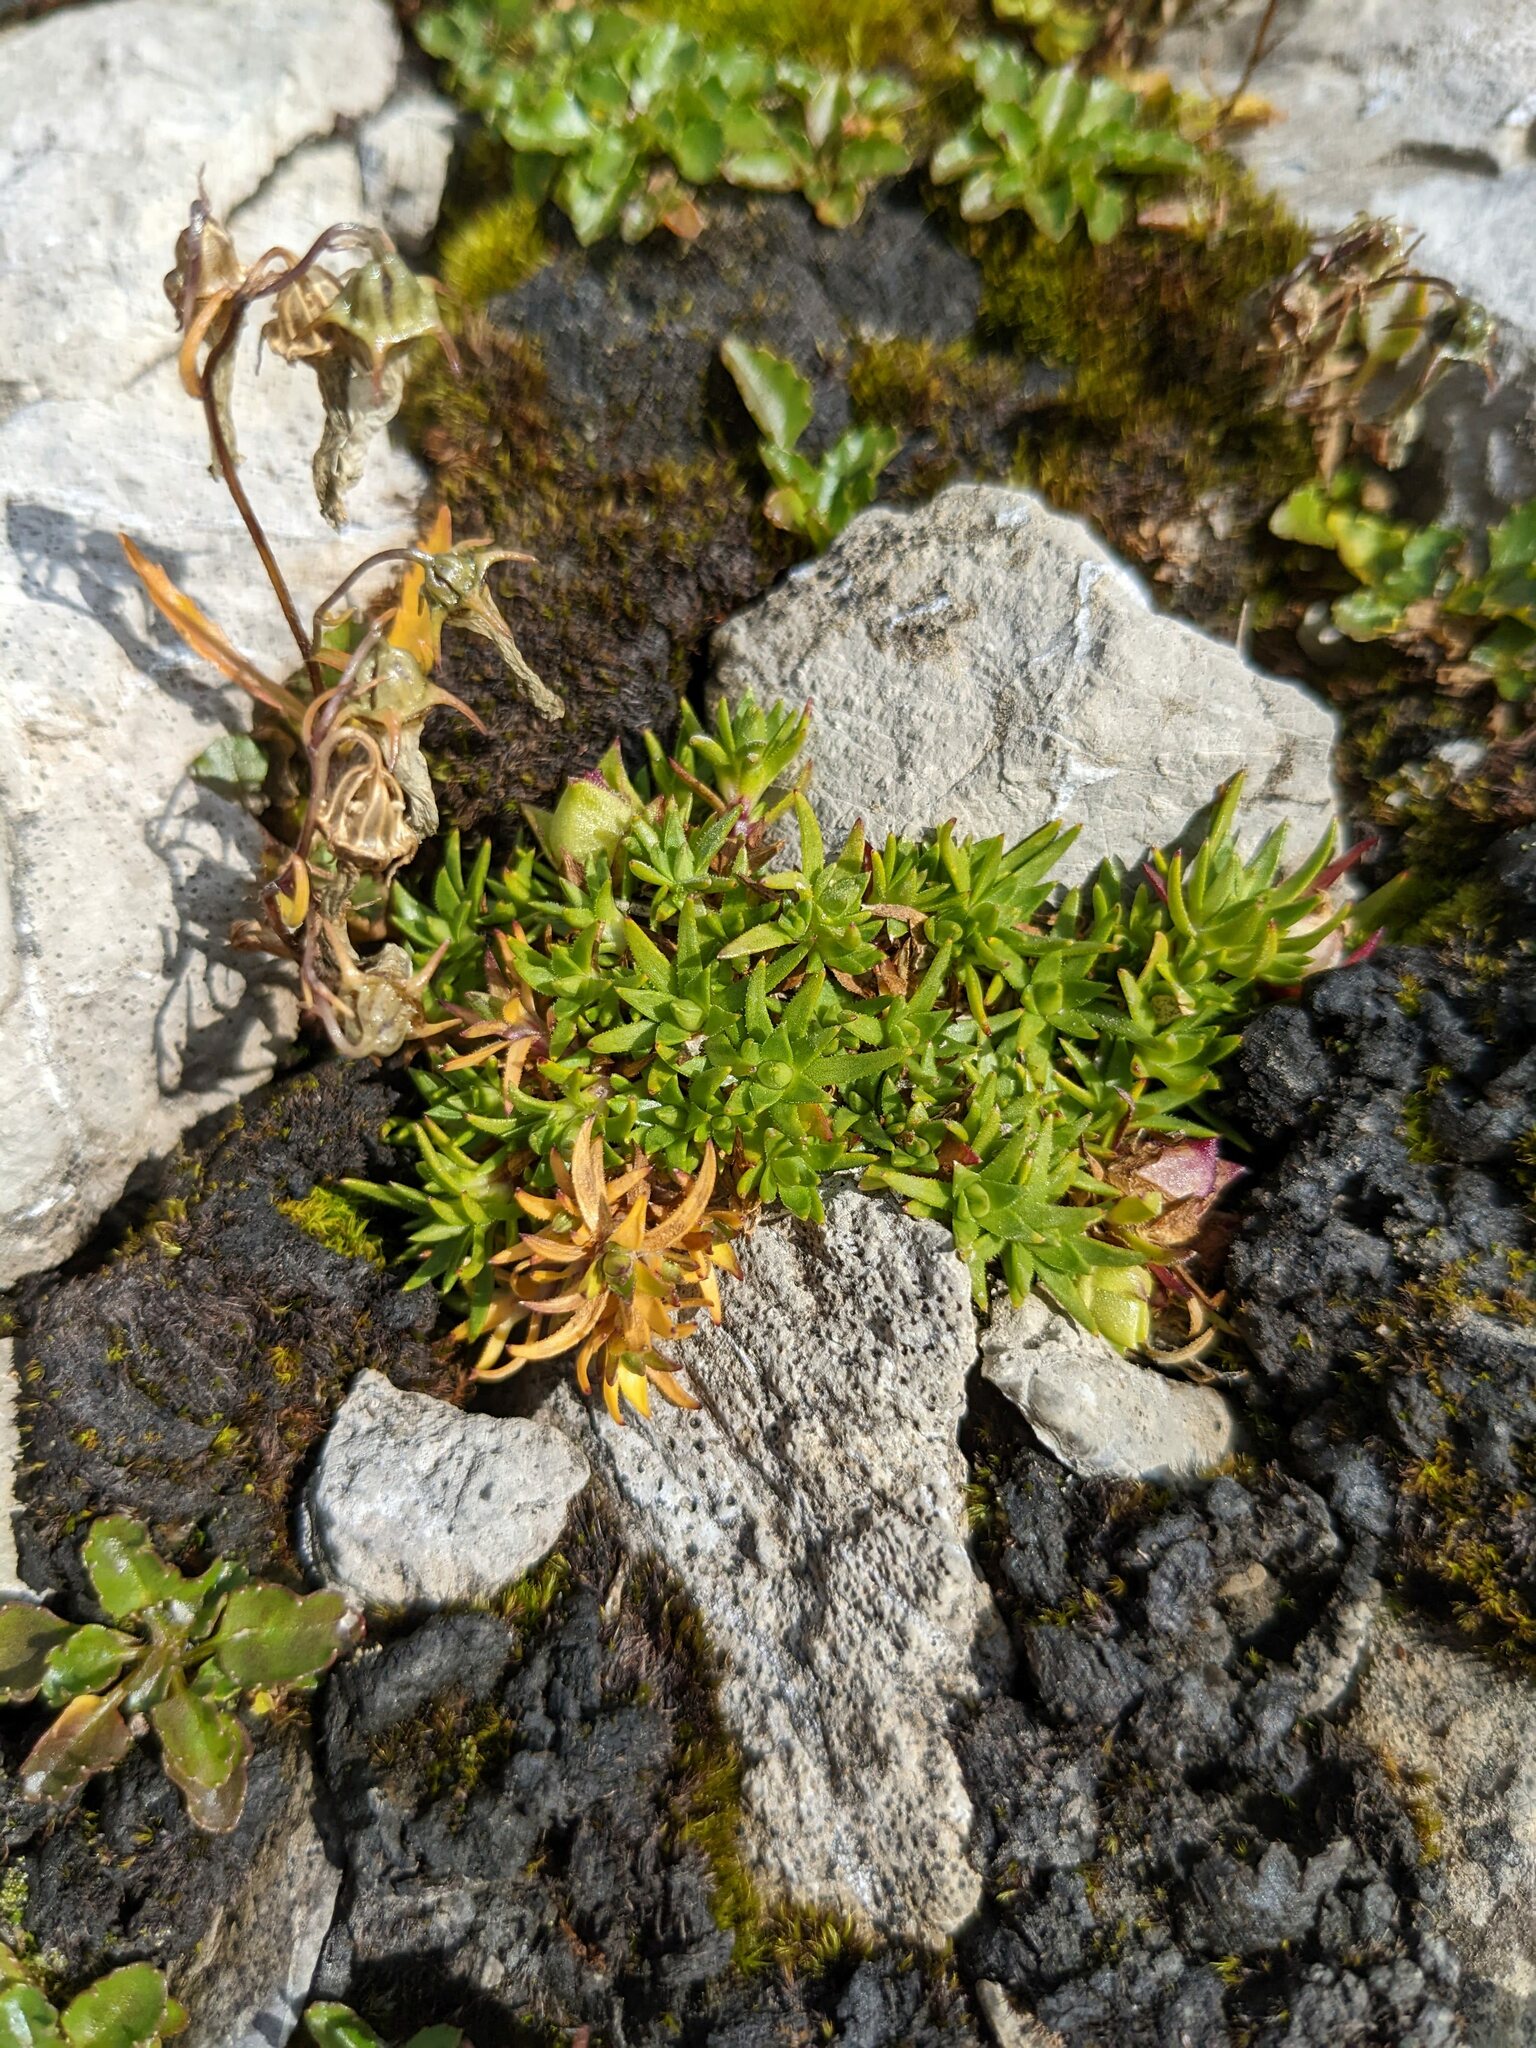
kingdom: Plantae
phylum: Tracheophyta
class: Magnoliopsida
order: Caryophyllales
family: Caryophyllaceae
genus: Silene
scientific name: Silene acaulis
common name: Moss campion
